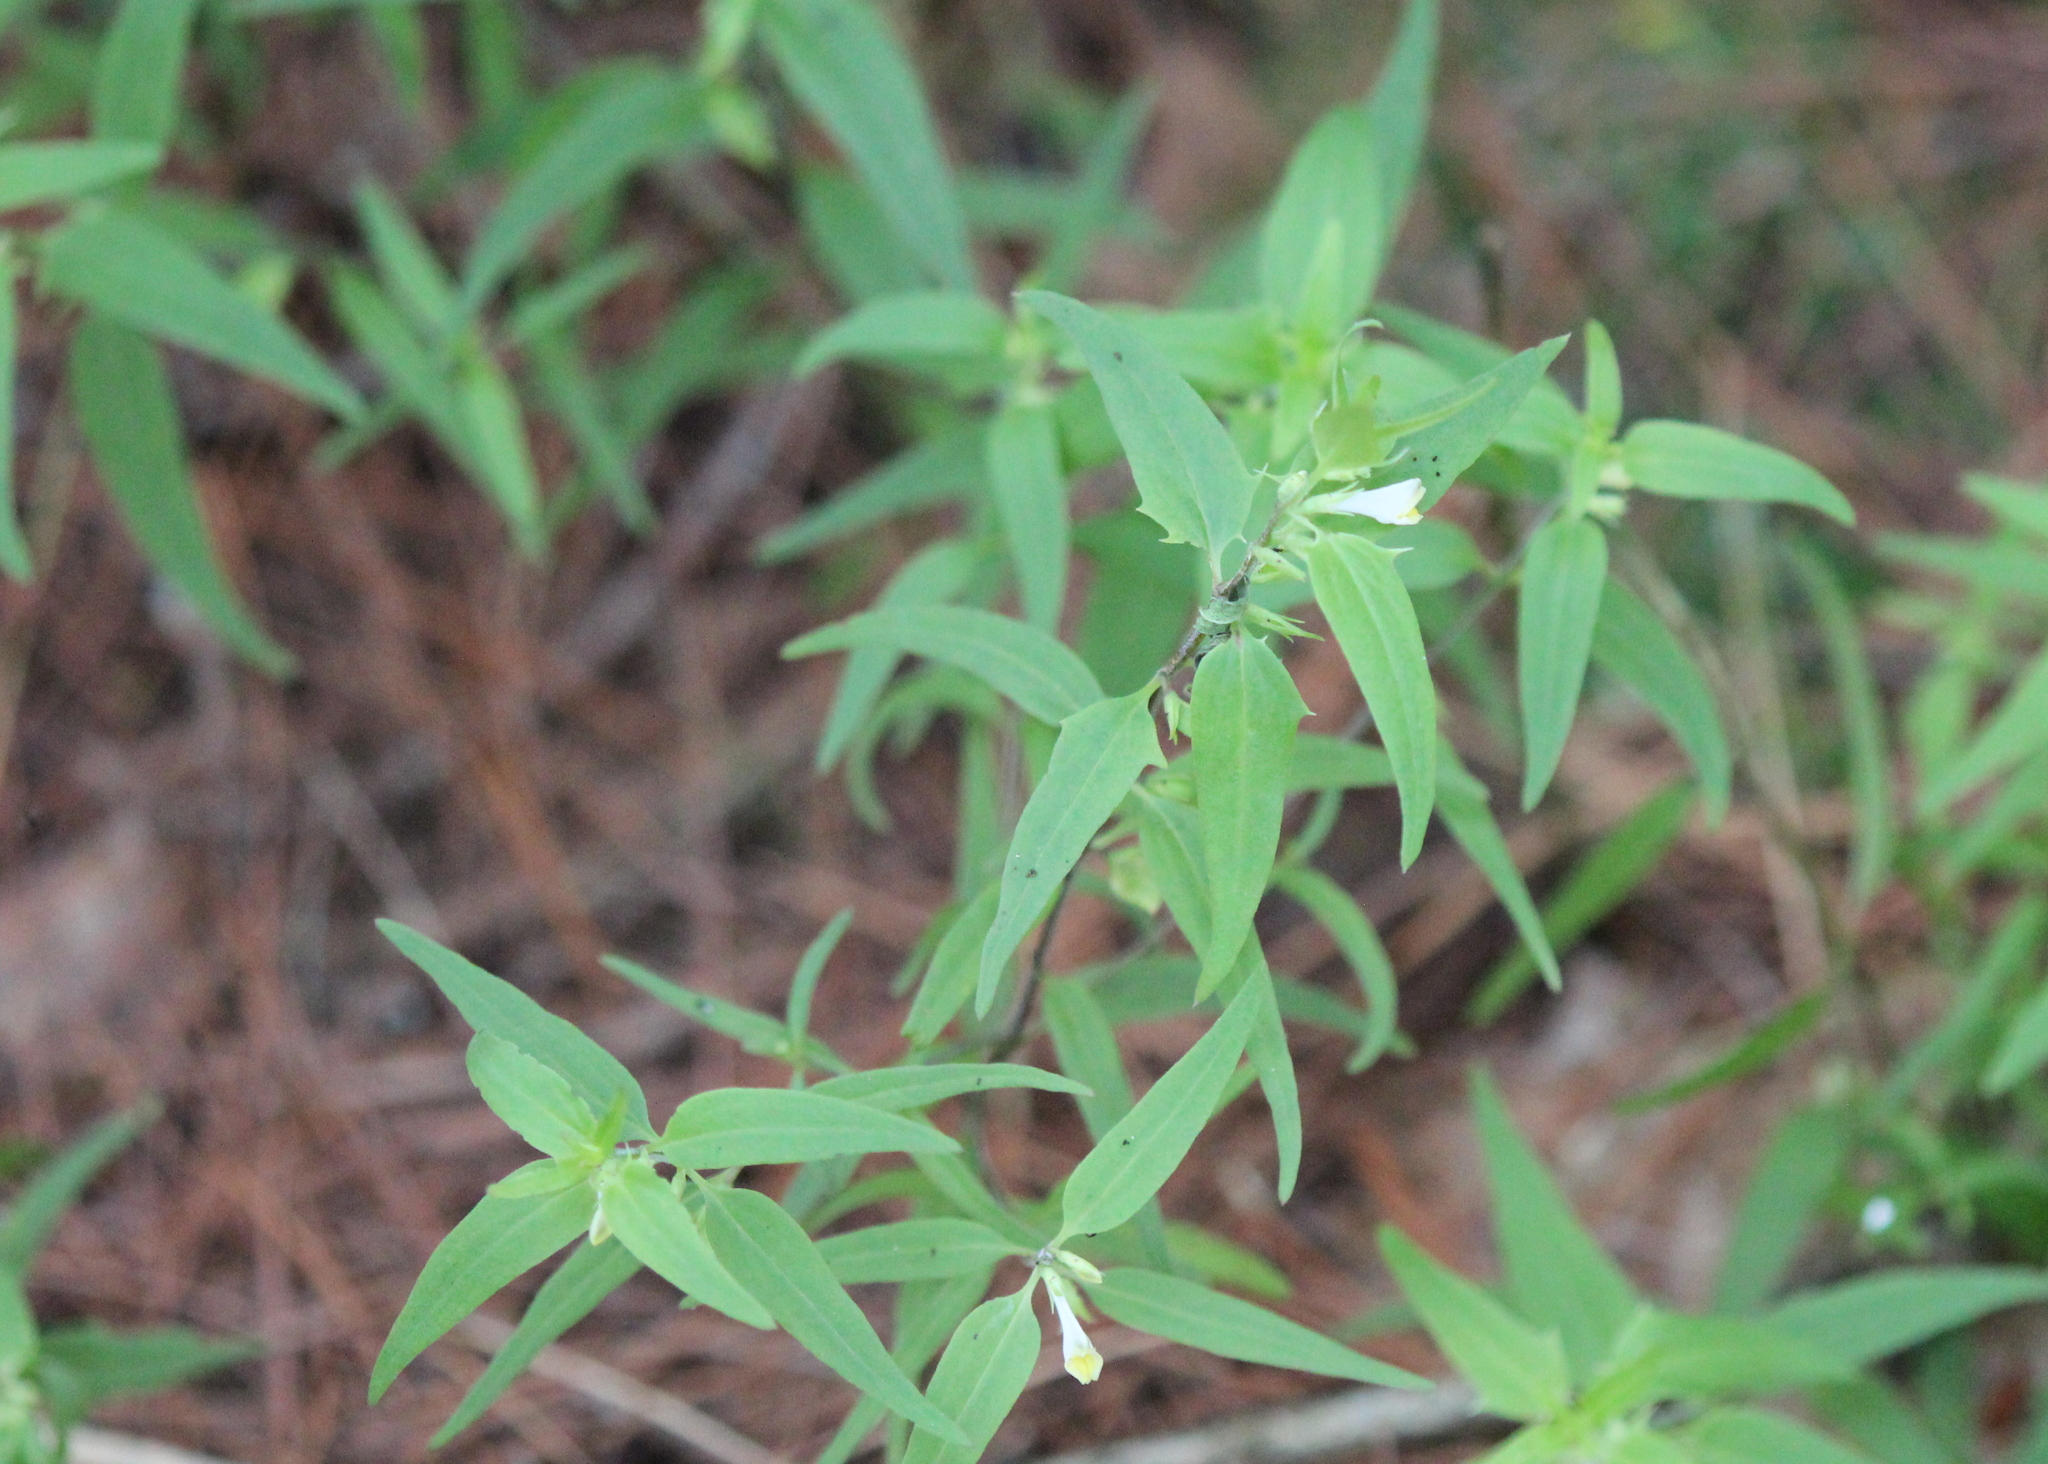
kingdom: Plantae
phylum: Tracheophyta
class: Magnoliopsida
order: Lamiales
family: Orobanchaceae
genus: Melampyrum
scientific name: Melampyrum lineare
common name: American cow-wheat
